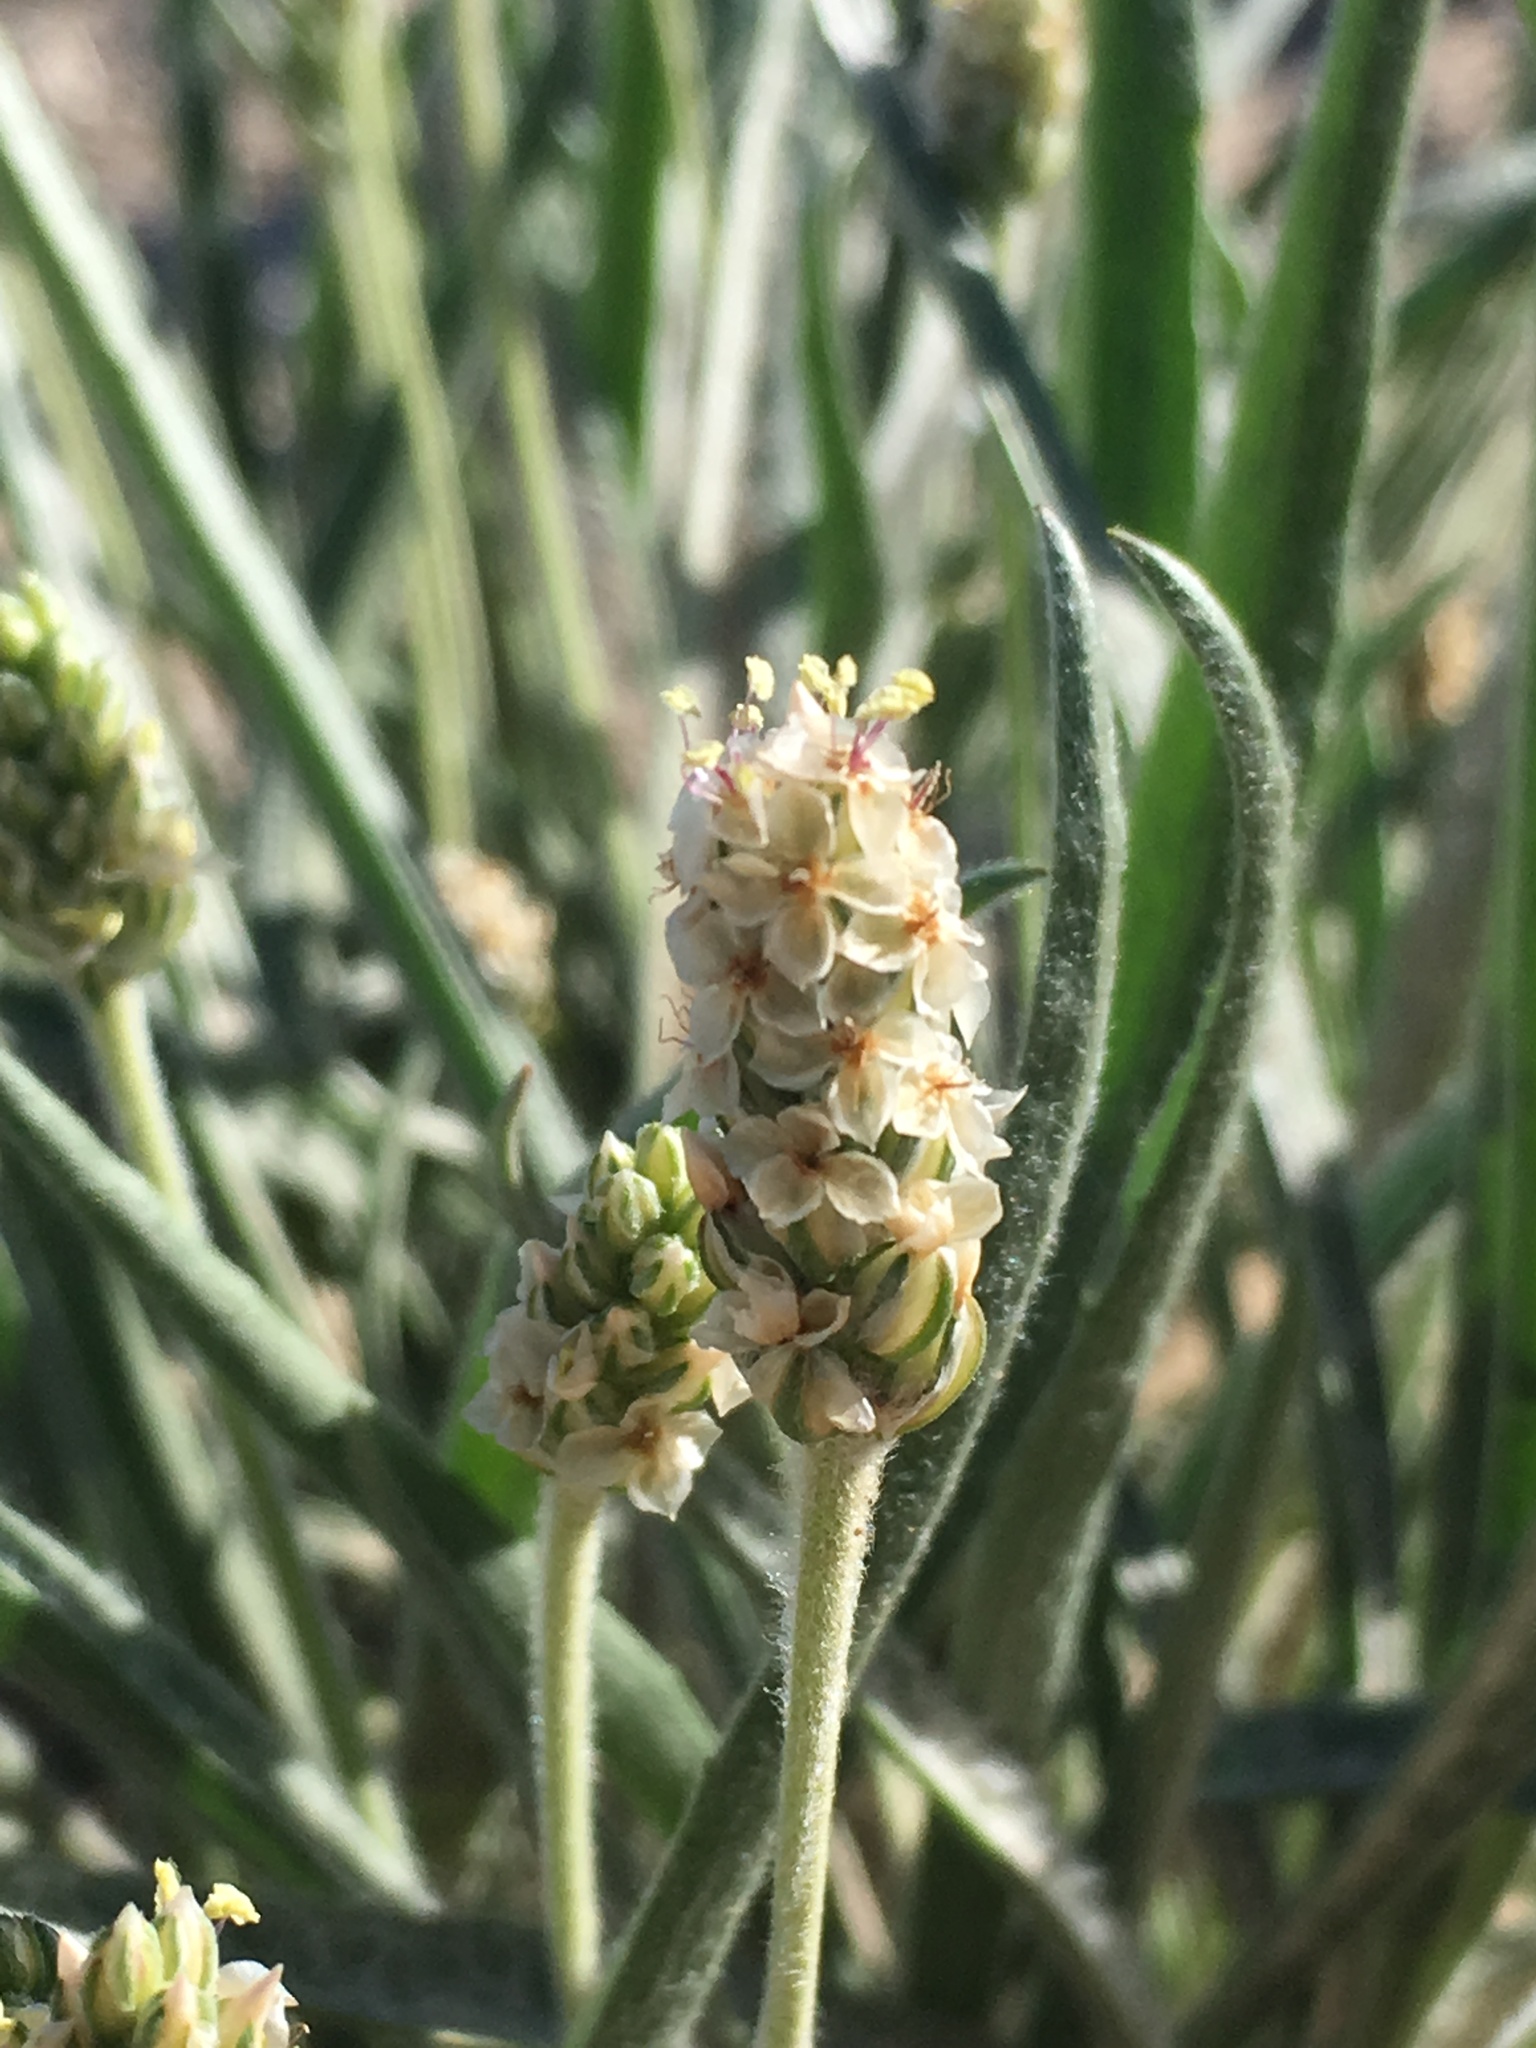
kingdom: Plantae
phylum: Tracheophyta
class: Magnoliopsida
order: Lamiales
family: Plantaginaceae
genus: Plantago
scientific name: Plantago ovata
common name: Blond plantain
